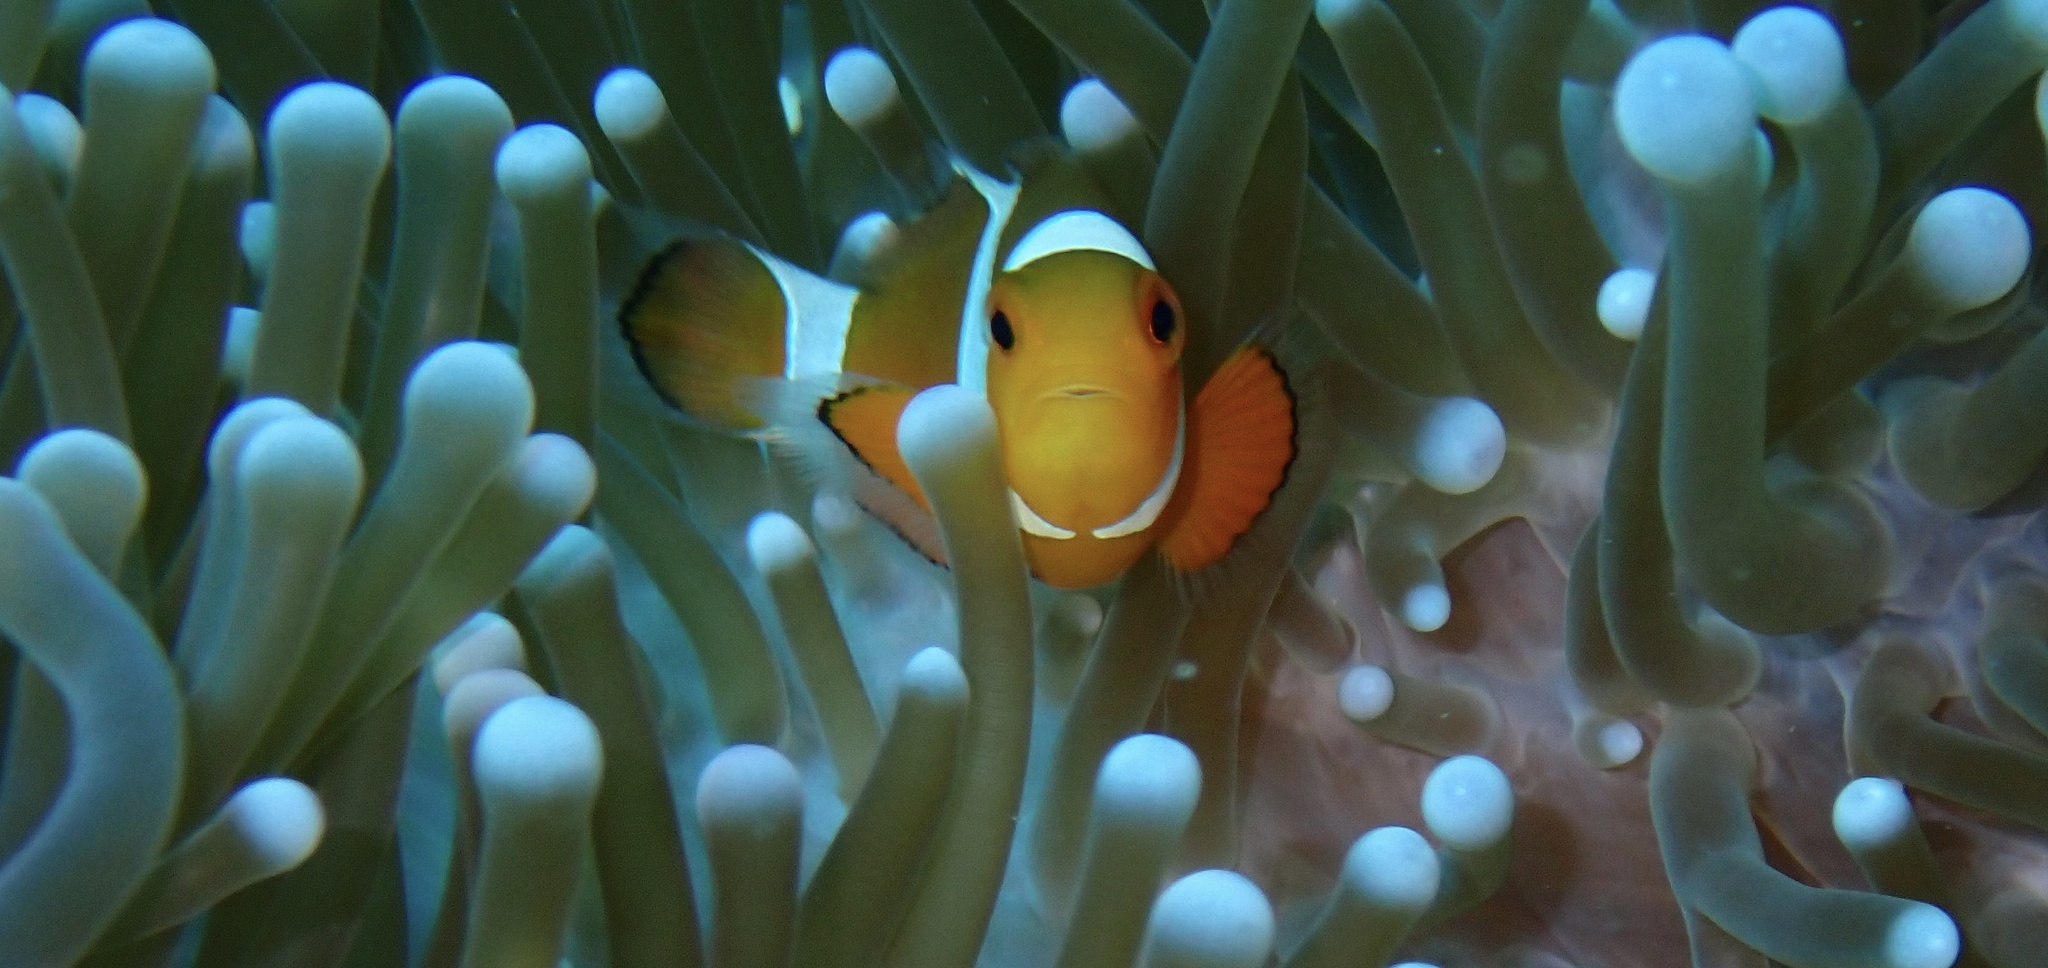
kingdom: Animalia
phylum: Chordata
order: Perciformes
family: Pomacentridae
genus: Amphiprion
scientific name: Amphiprion ocellaris
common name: Clown anemonefish
